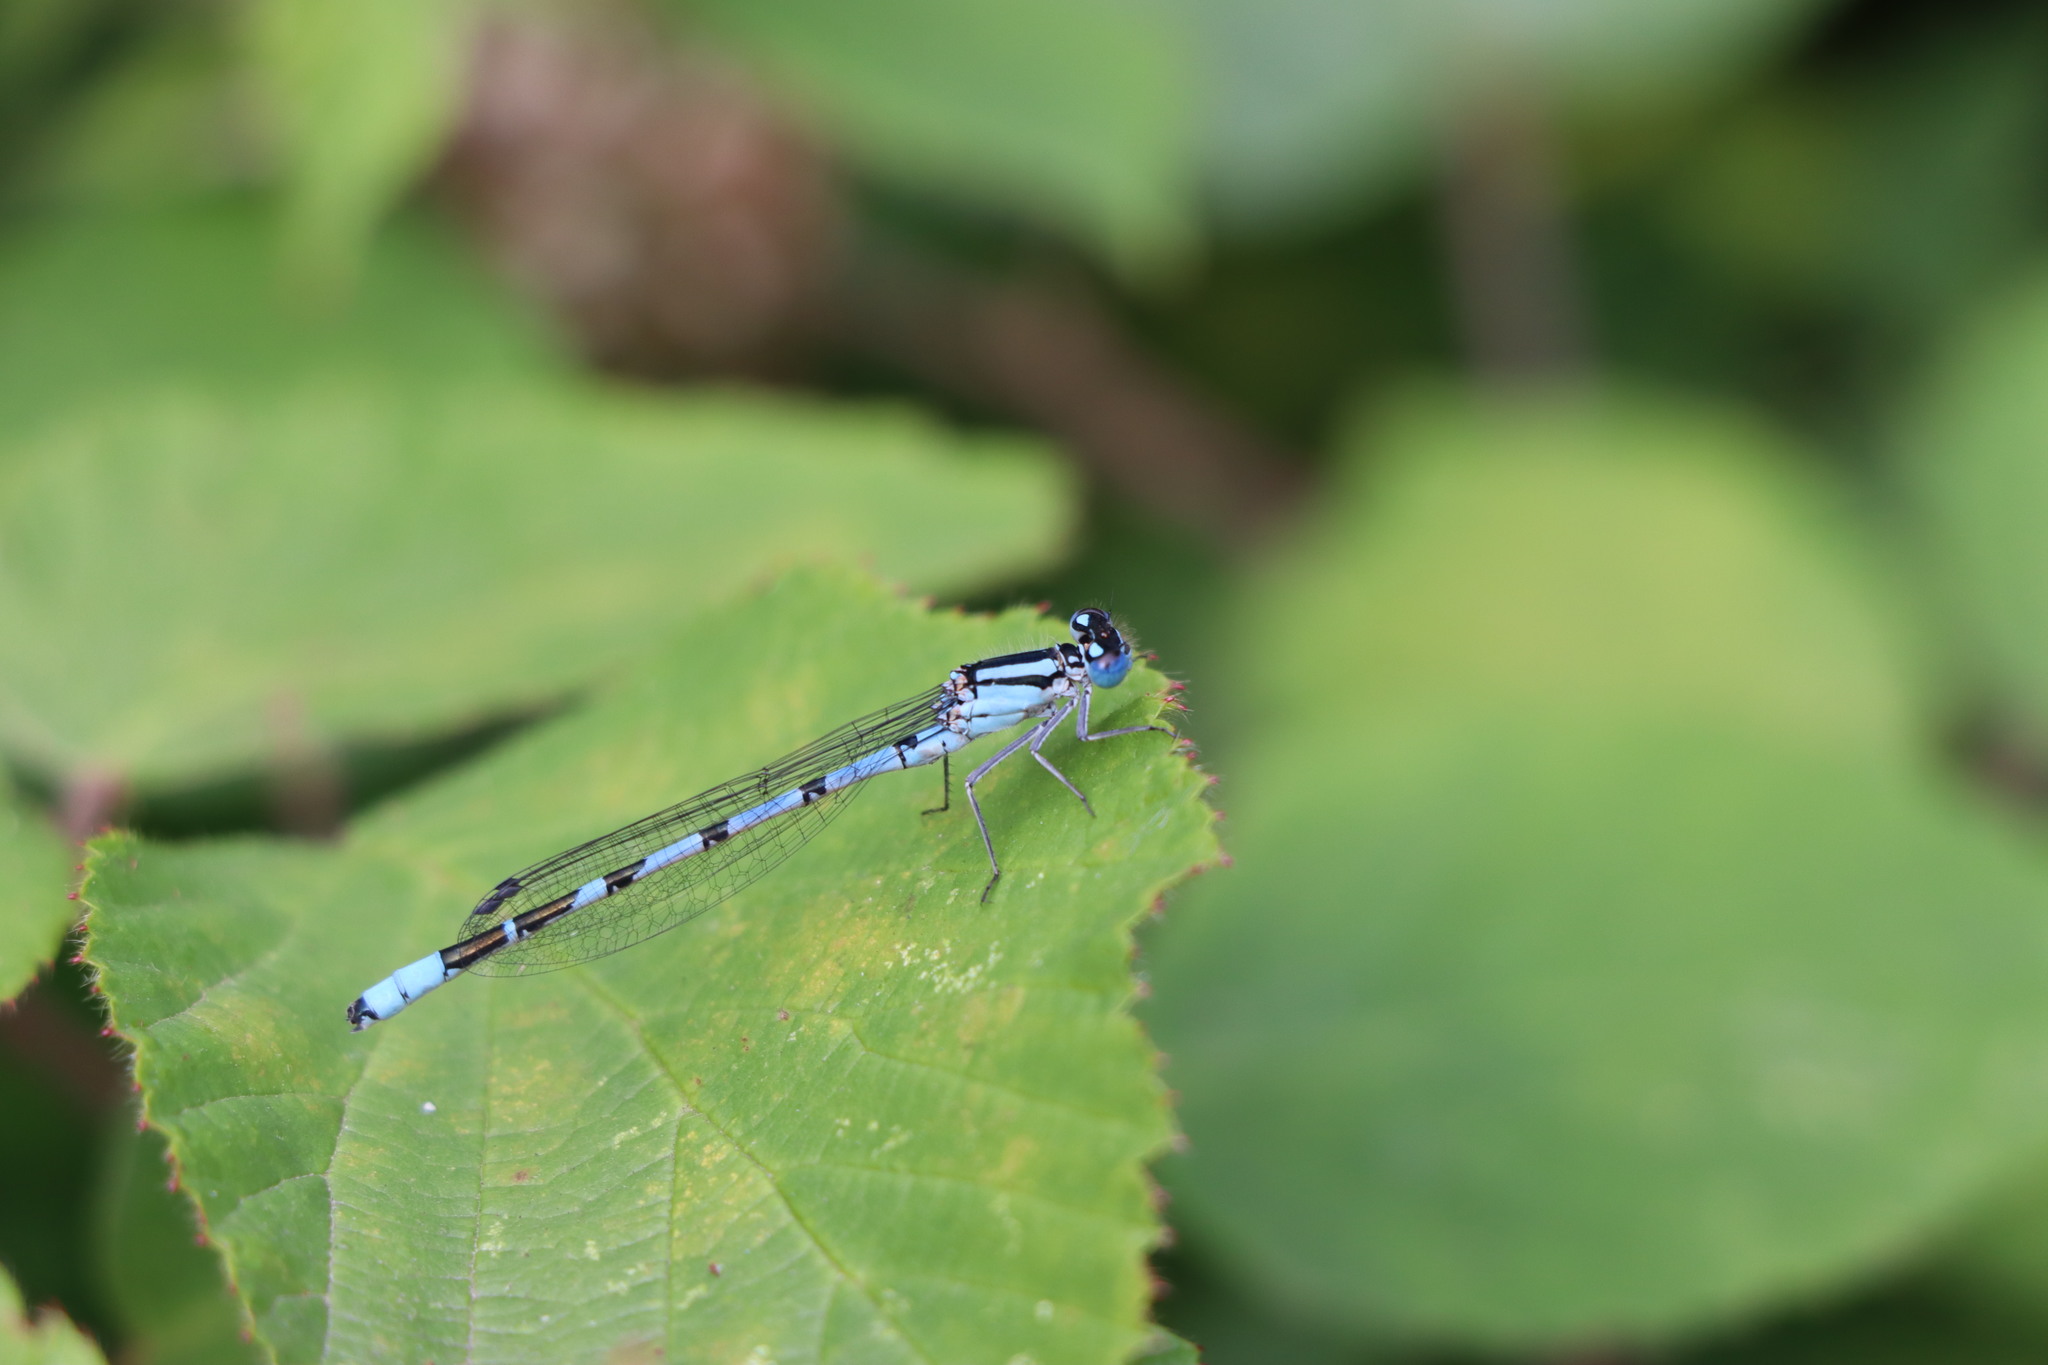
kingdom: Animalia
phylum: Arthropoda
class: Insecta
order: Odonata
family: Coenagrionidae
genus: Enallagma
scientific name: Enallagma cyathigerum
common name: Common blue damselfly
